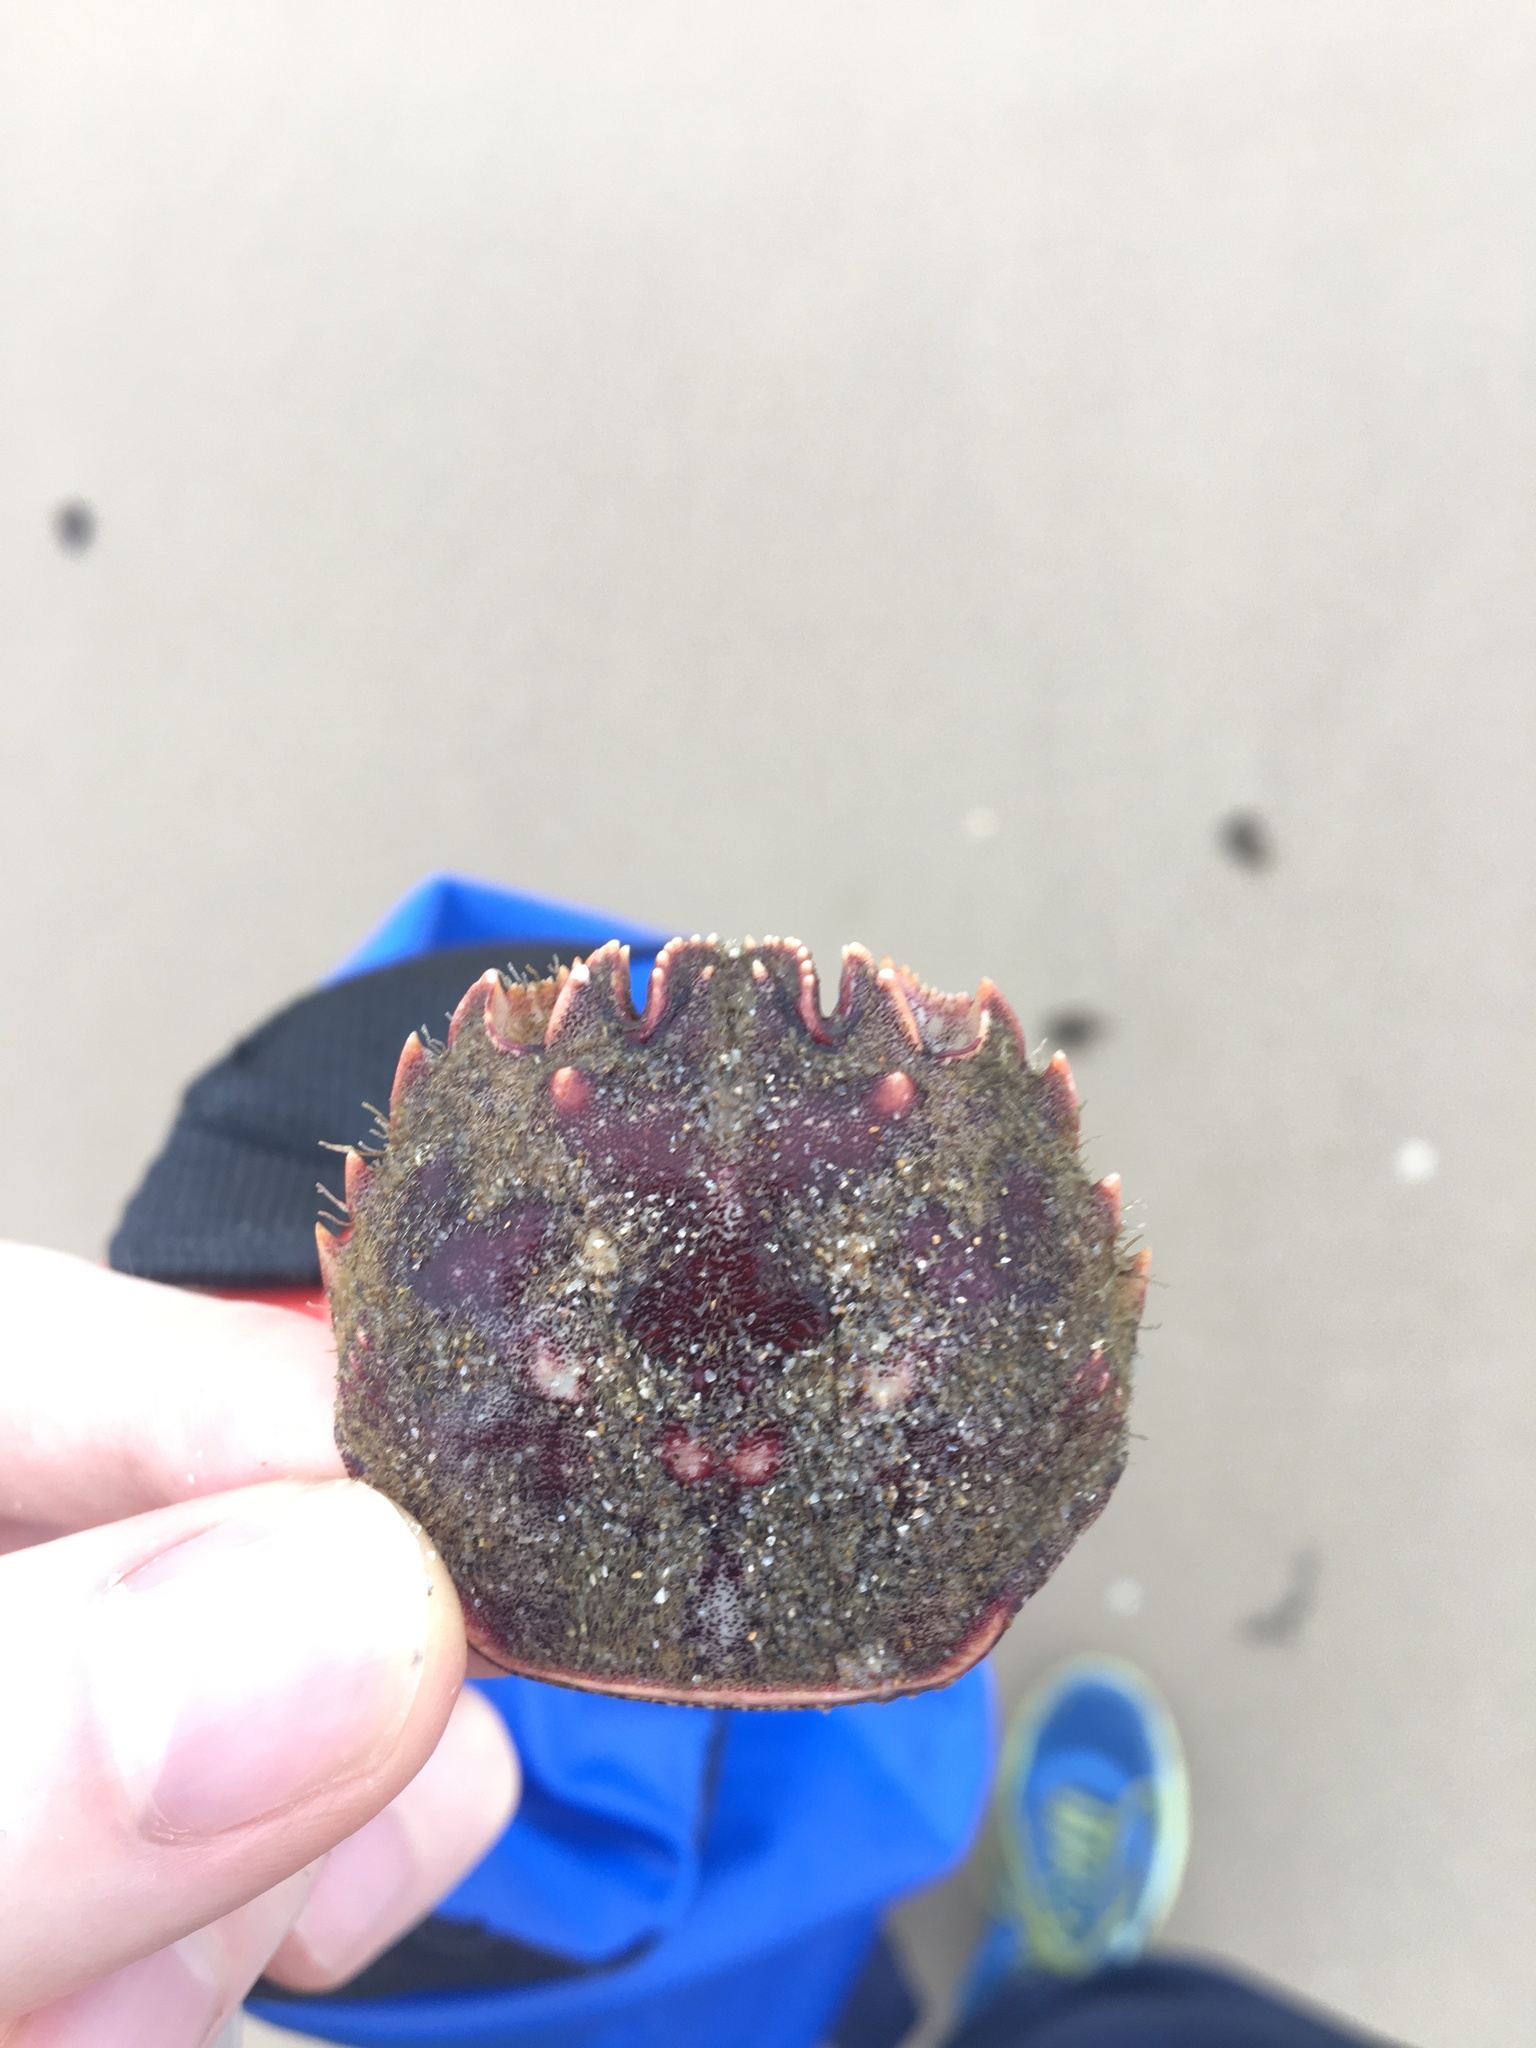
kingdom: Animalia
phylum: Arthropoda
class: Malacostraca
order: Decapoda
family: Plagusiidae
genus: Guinusia
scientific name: Guinusia chabrus
